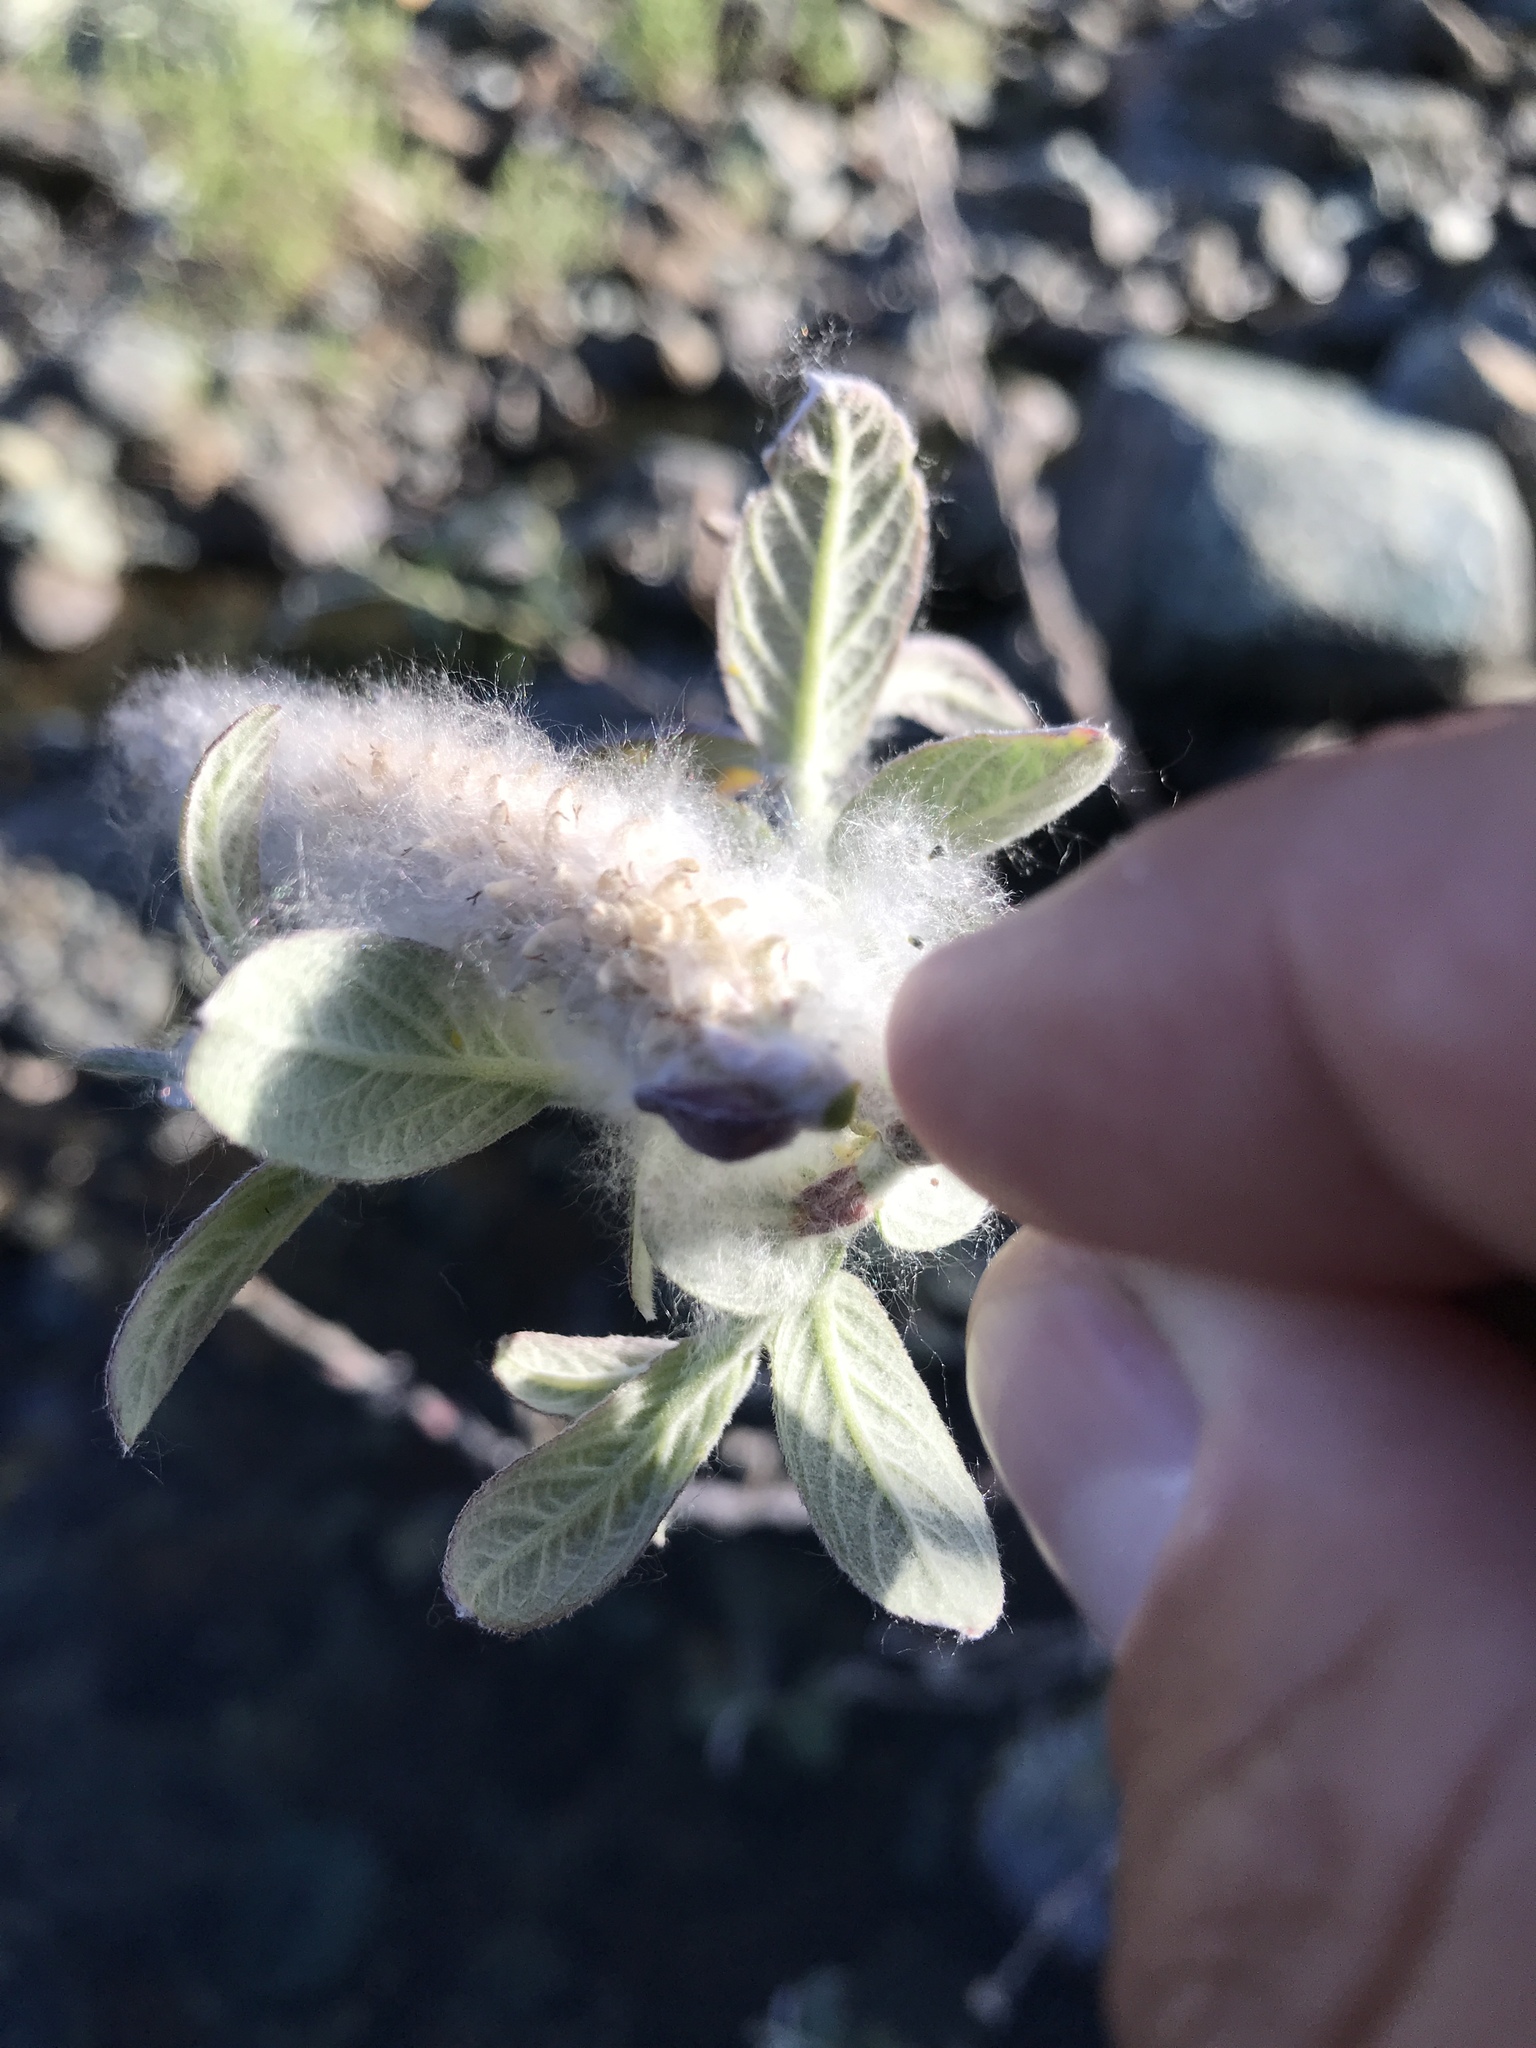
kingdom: Plantae
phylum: Tracheophyta
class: Magnoliopsida
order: Malpighiales
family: Salicaceae
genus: Salix
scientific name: Salix breweri
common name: Brewer’s willow
